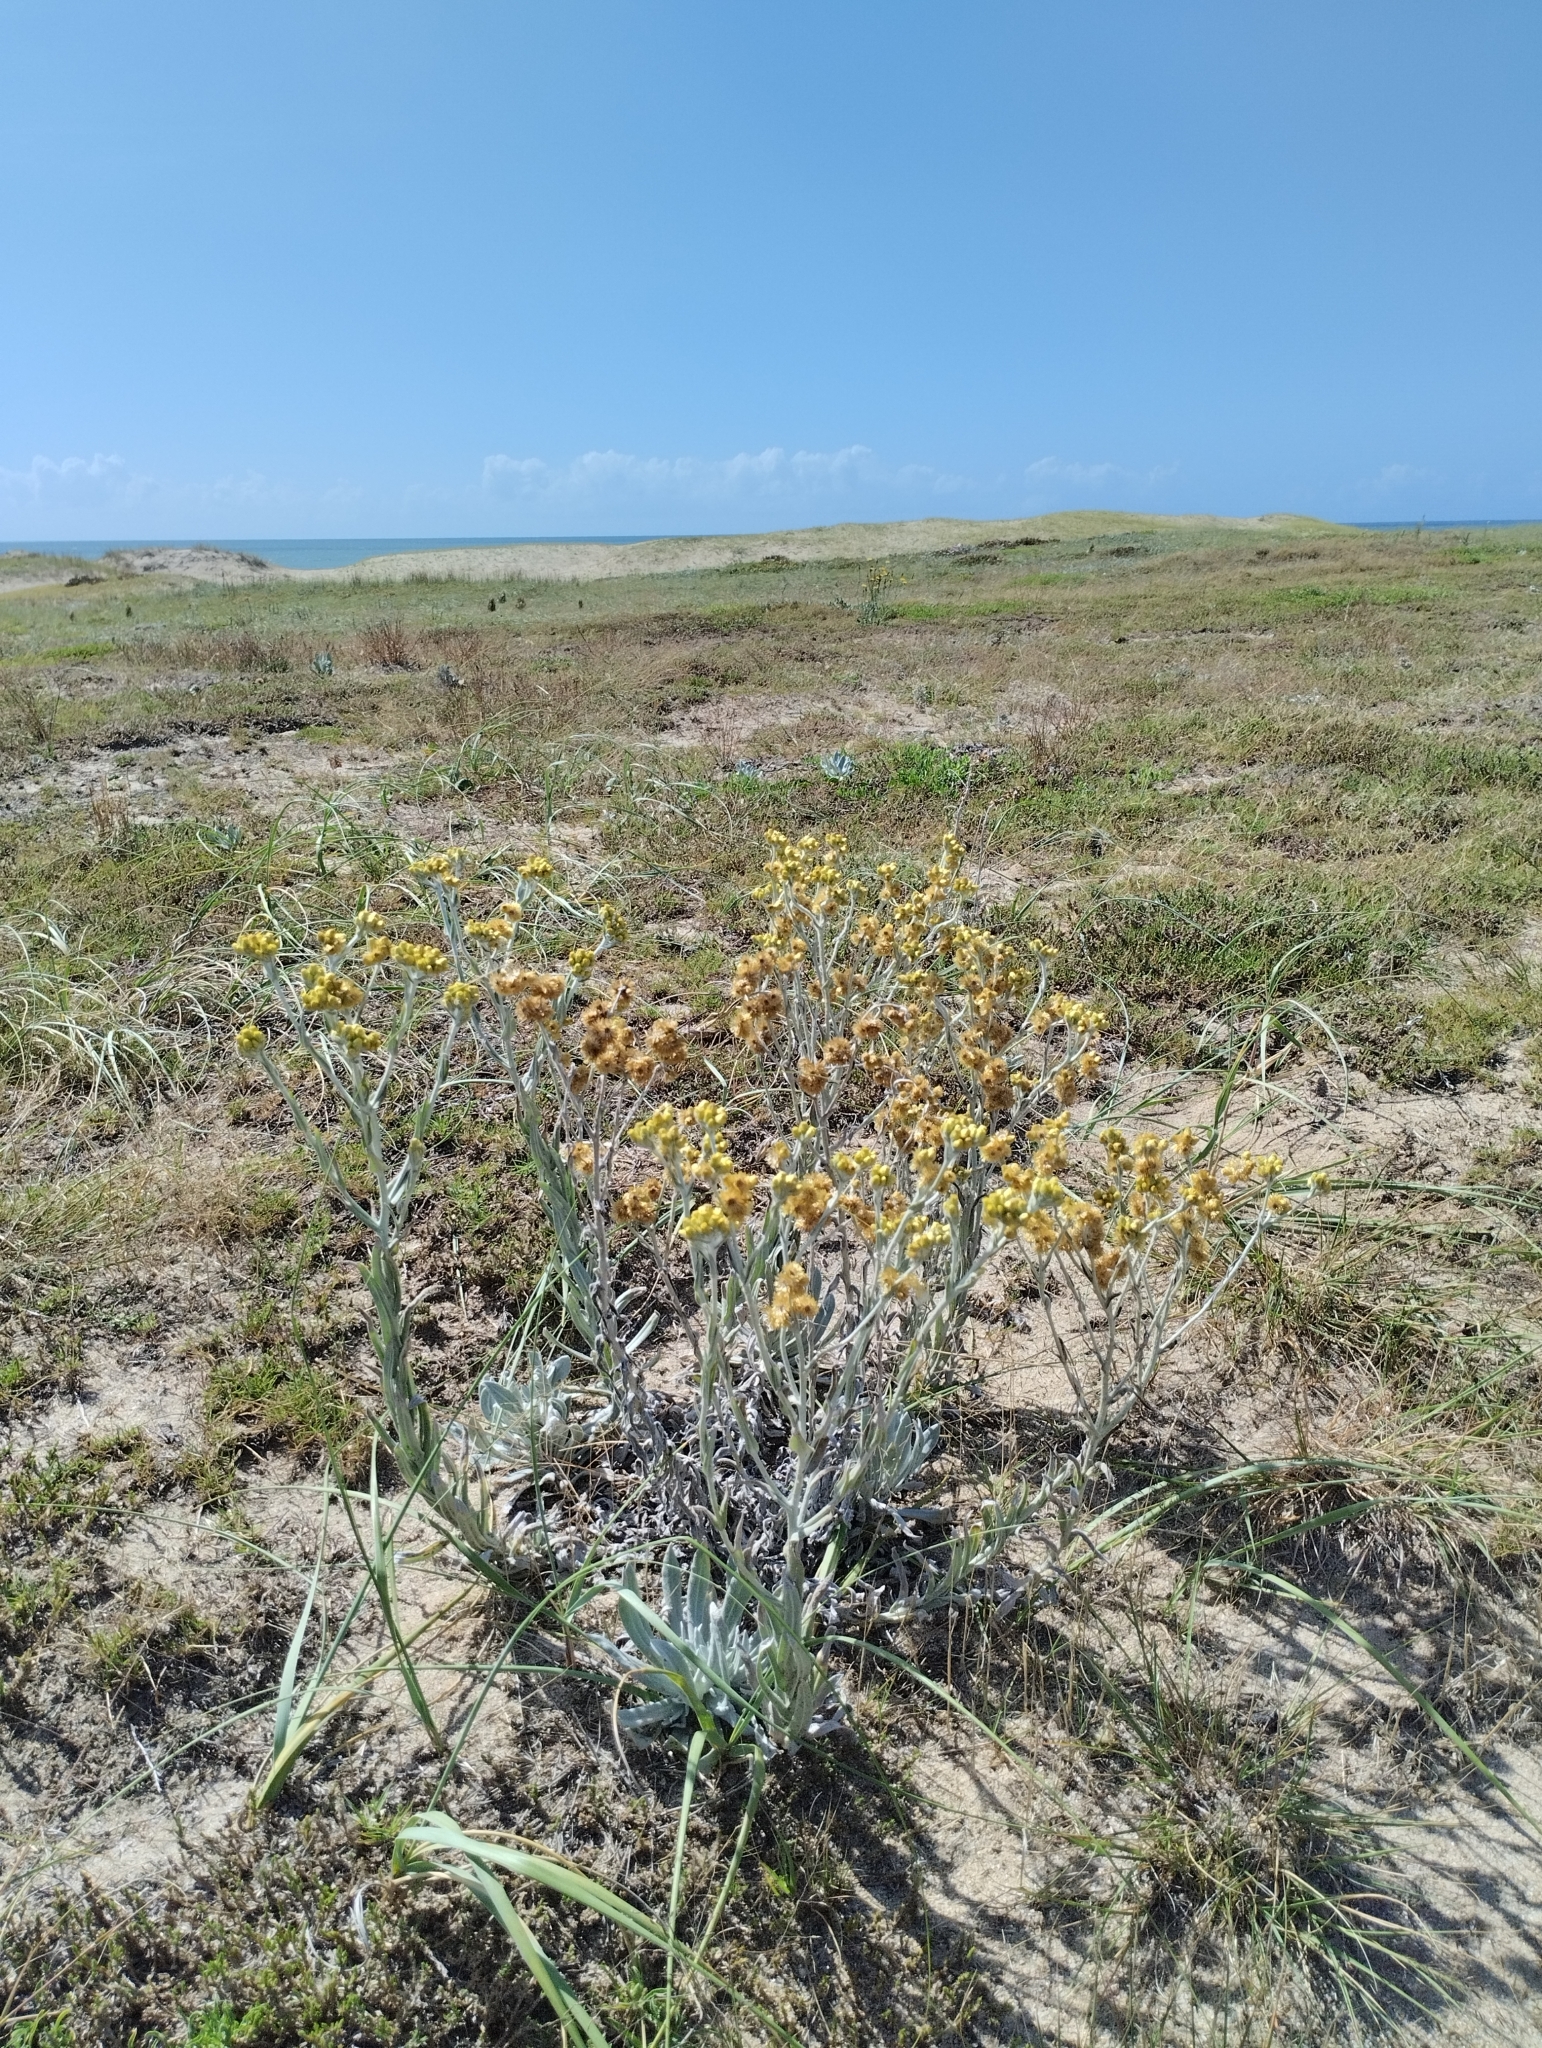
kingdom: Plantae
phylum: Tracheophyta
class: Magnoliopsida
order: Asterales
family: Asteraceae
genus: Pseudognaphalium
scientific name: Pseudognaphalium cheiranthifolium
